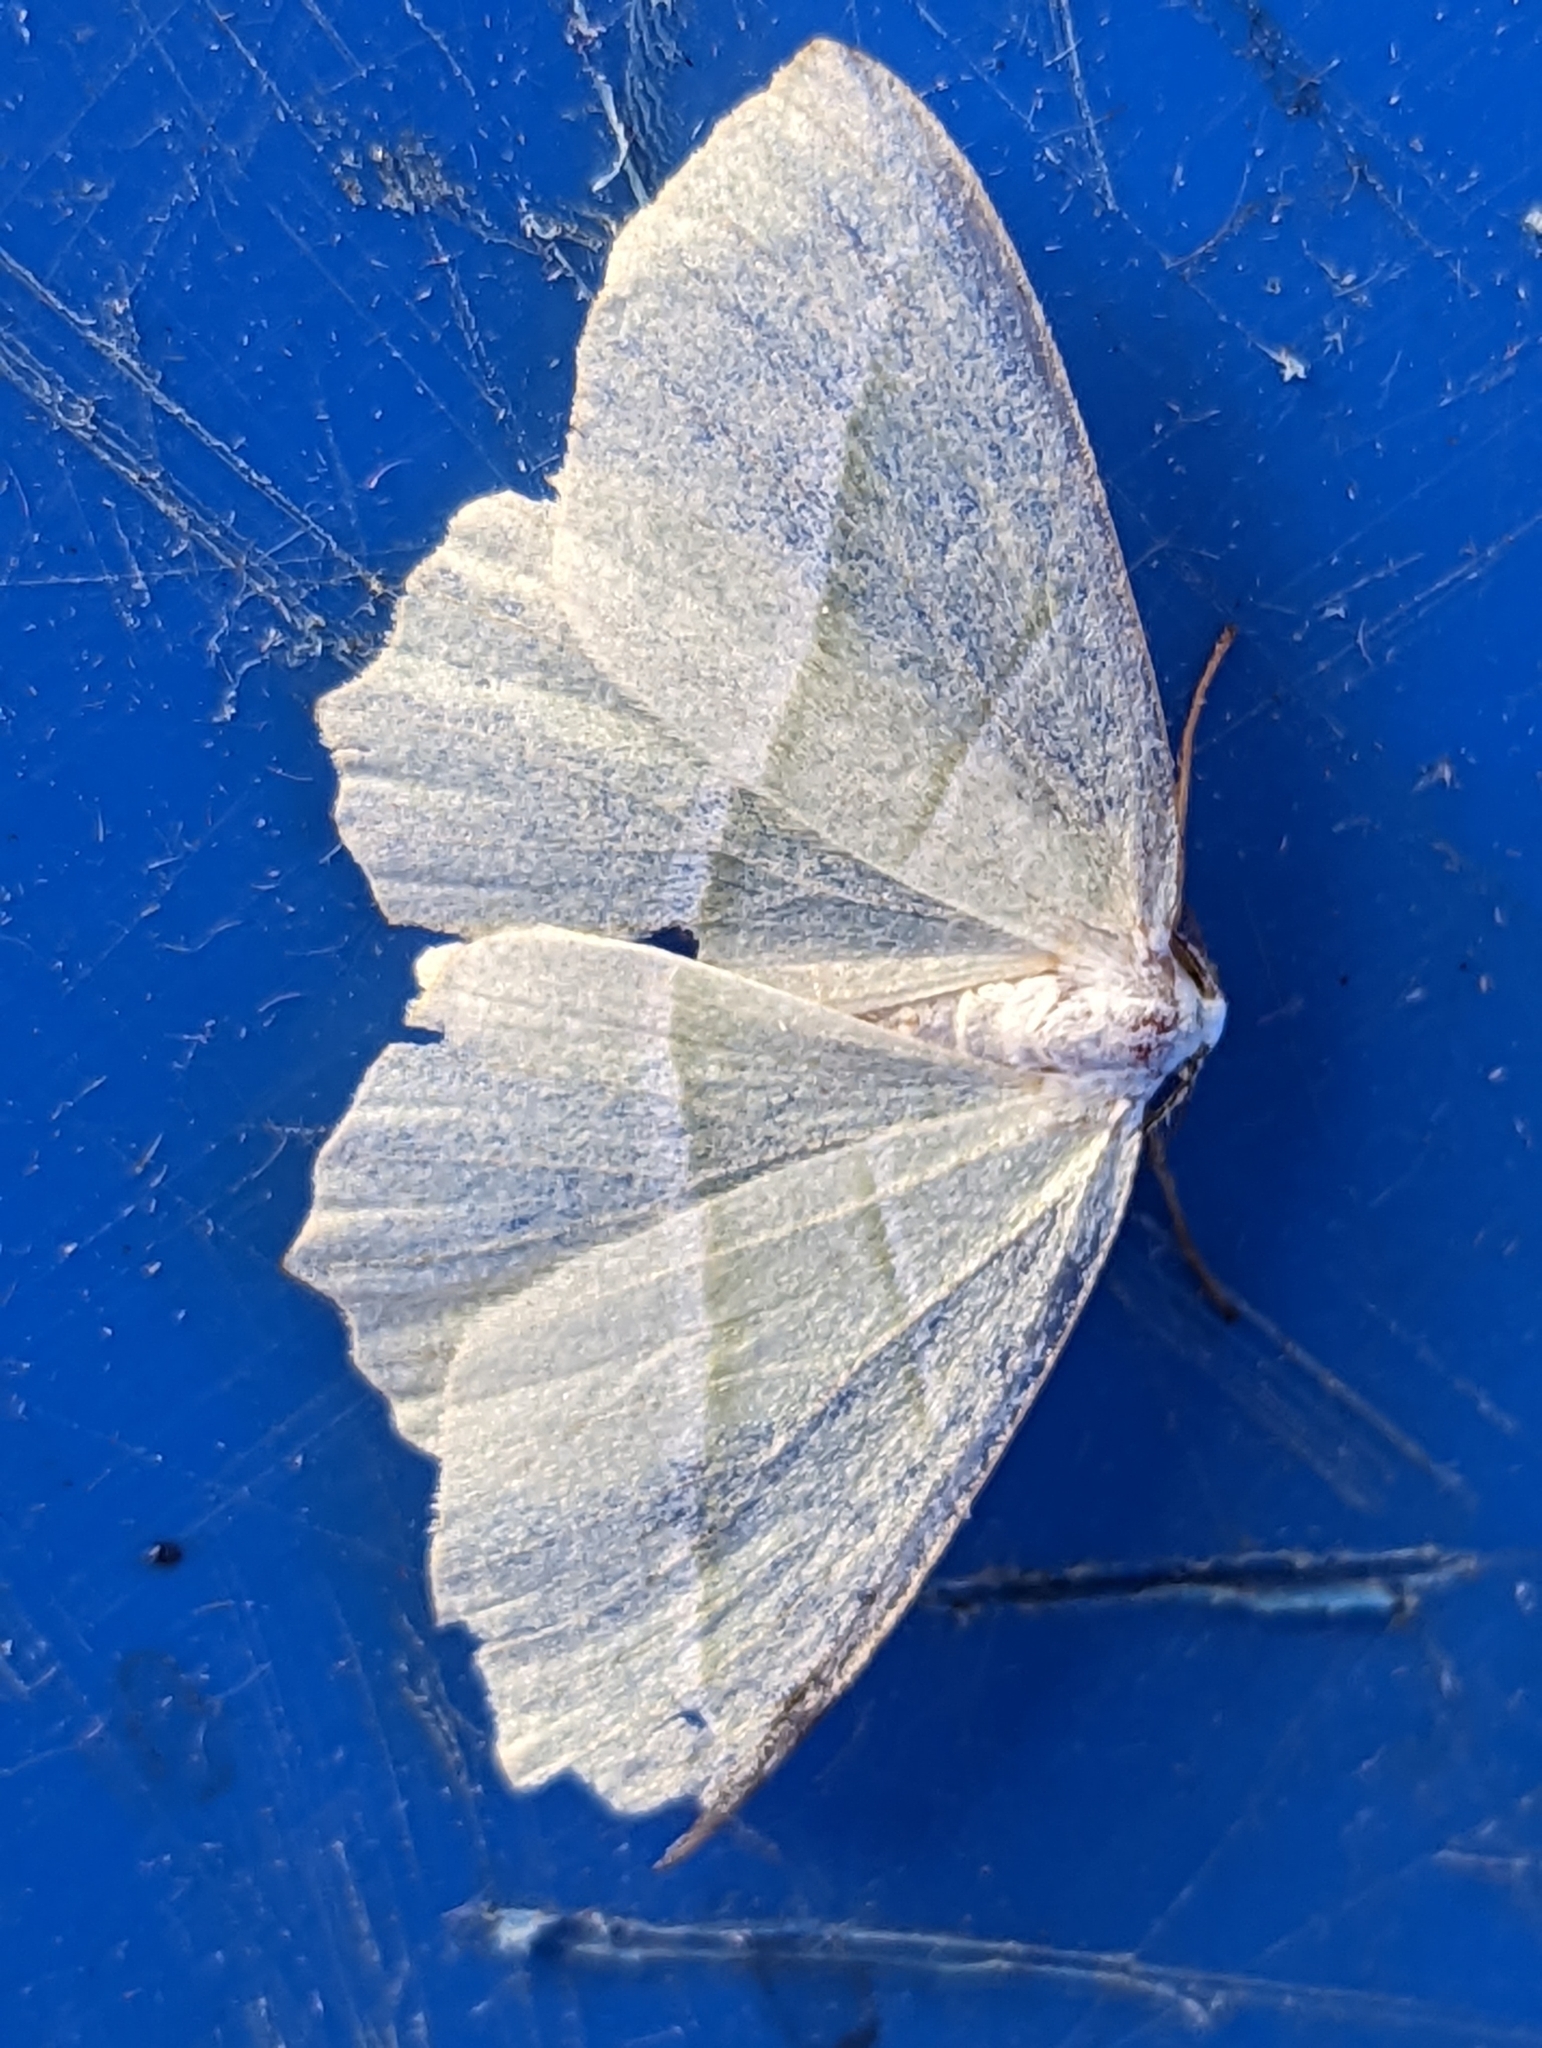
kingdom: Animalia
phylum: Arthropoda
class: Insecta
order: Lepidoptera
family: Geometridae
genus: Campaea
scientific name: Campaea margaritaria
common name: Light emerald
